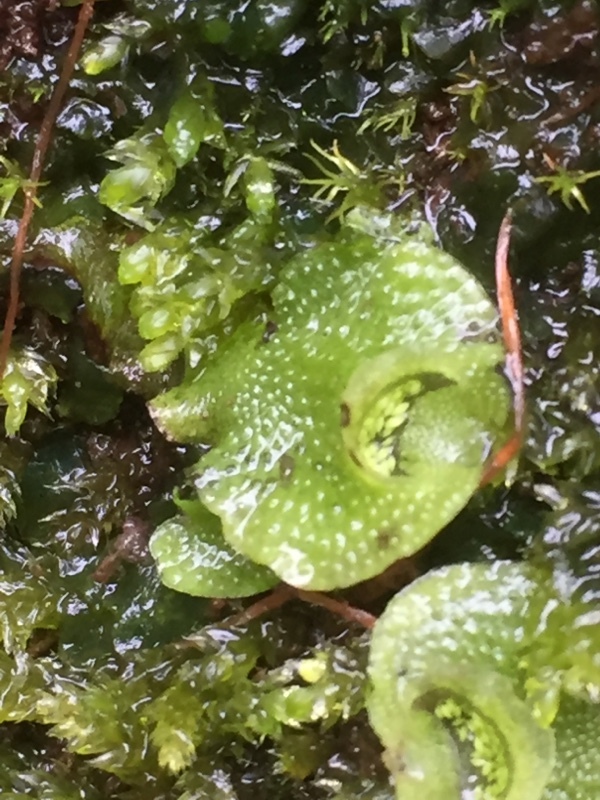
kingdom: Plantae
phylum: Marchantiophyta
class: Marchantiopsida
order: Lunulariales
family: Lunulariaceae
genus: Lunularia
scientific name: Lunularia cruciata
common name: Crescent-cup liverwort
